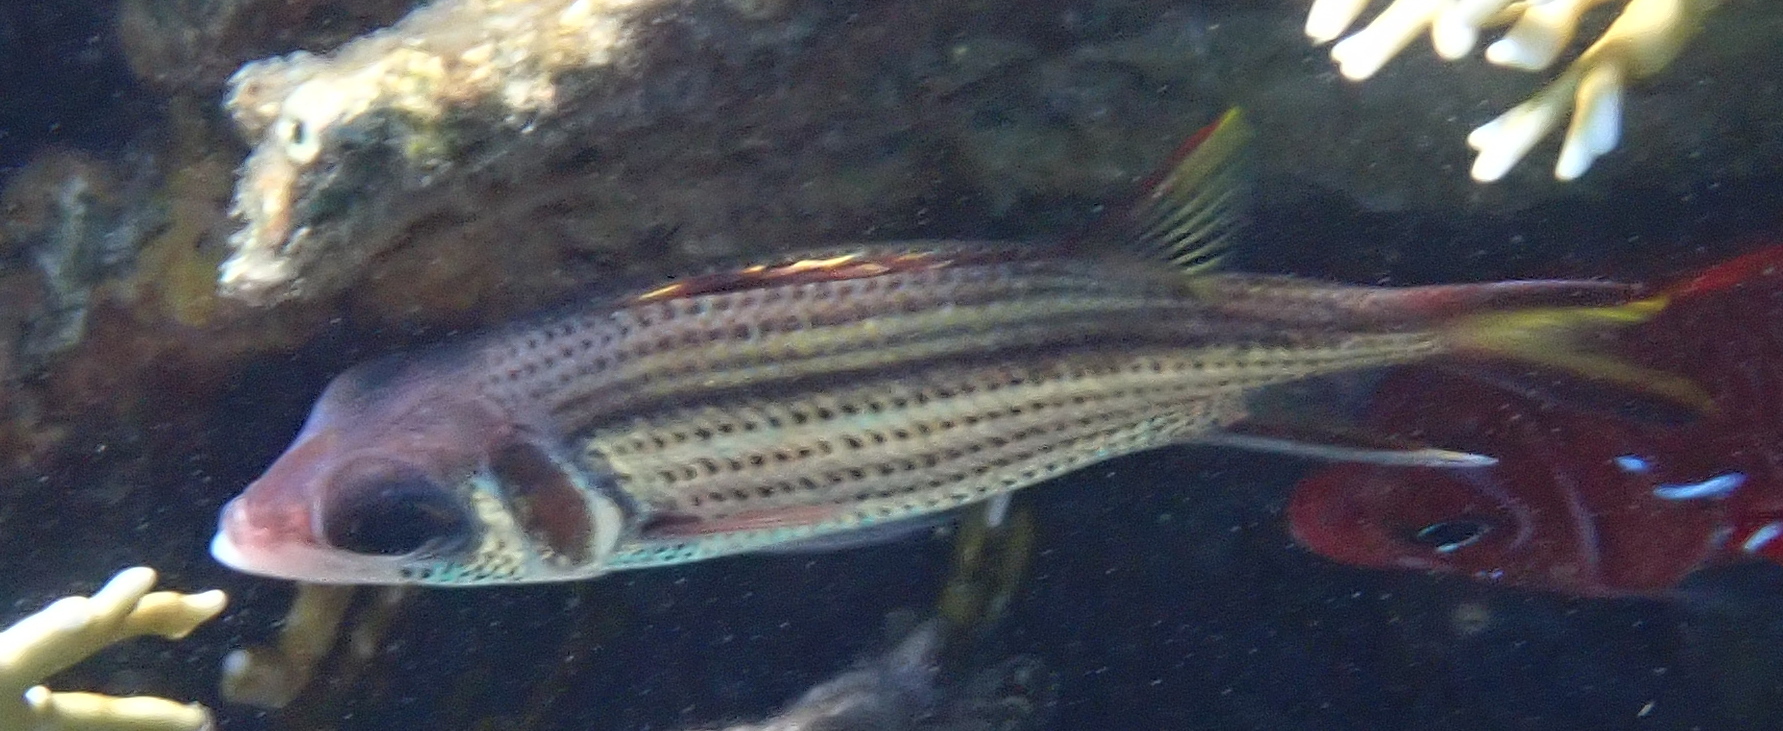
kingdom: Animalia
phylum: Chordata
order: Beryciformes
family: Holocentridae
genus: Neoniphon
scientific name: Neoniphon sammara
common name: Sammara squirrelfish
